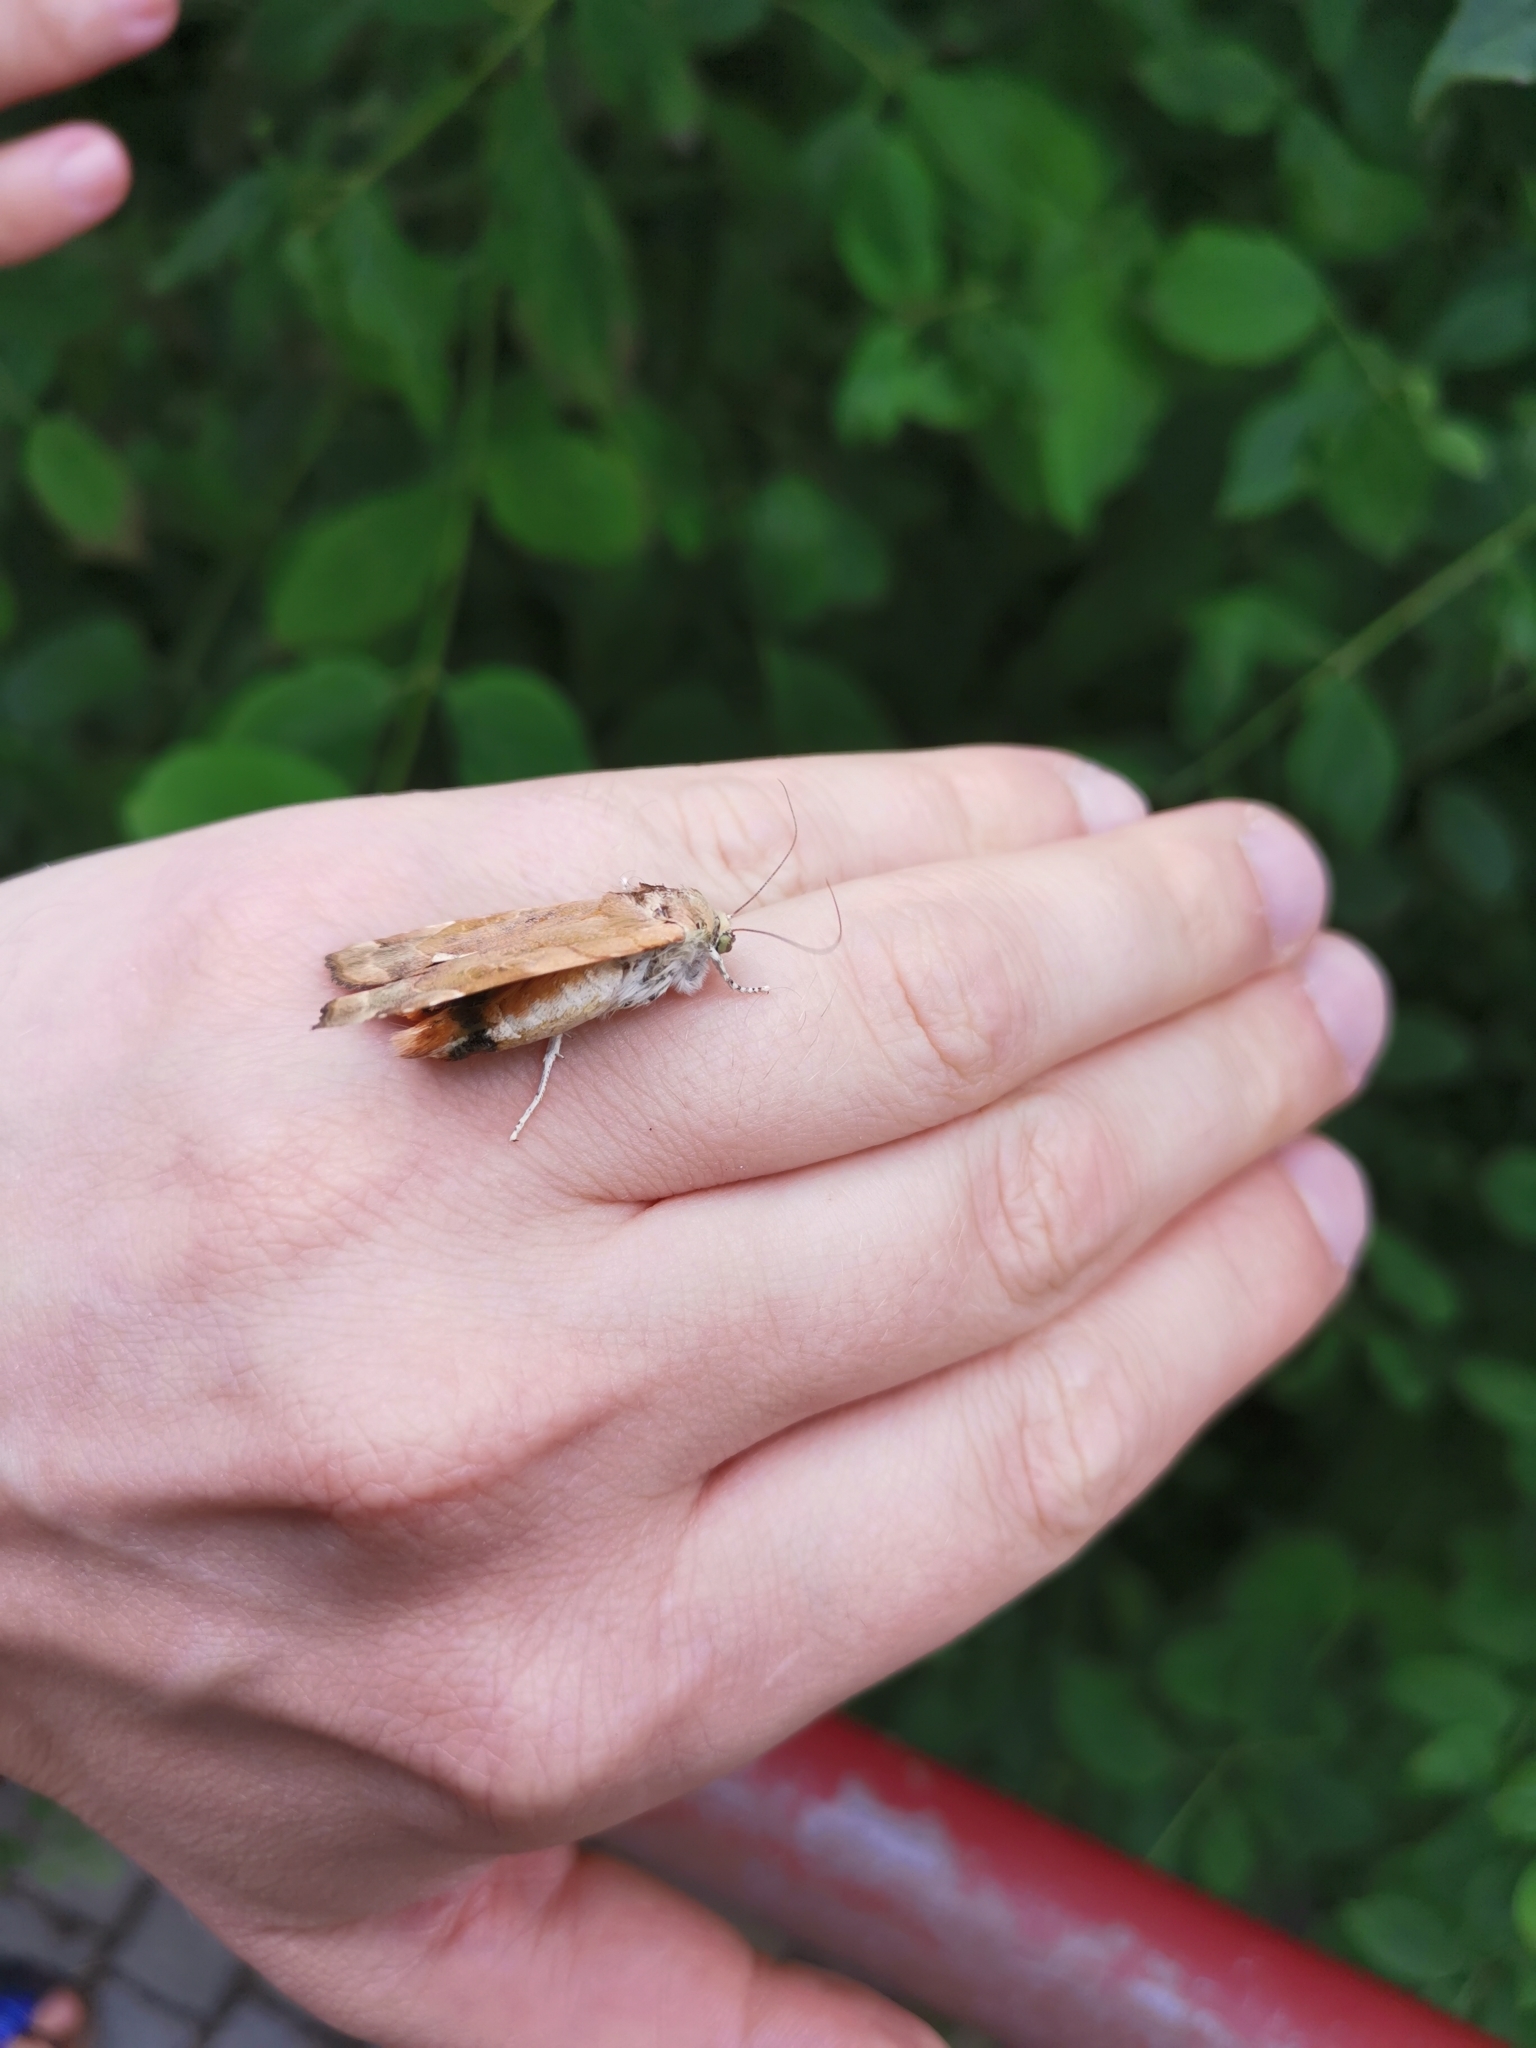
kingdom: Animalia
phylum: Arthropoda
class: Insecta
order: Lepidoptera
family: Noctuidae
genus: Noctua
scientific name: Noctua fimbriata
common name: Broad-bordered yellow underwing
